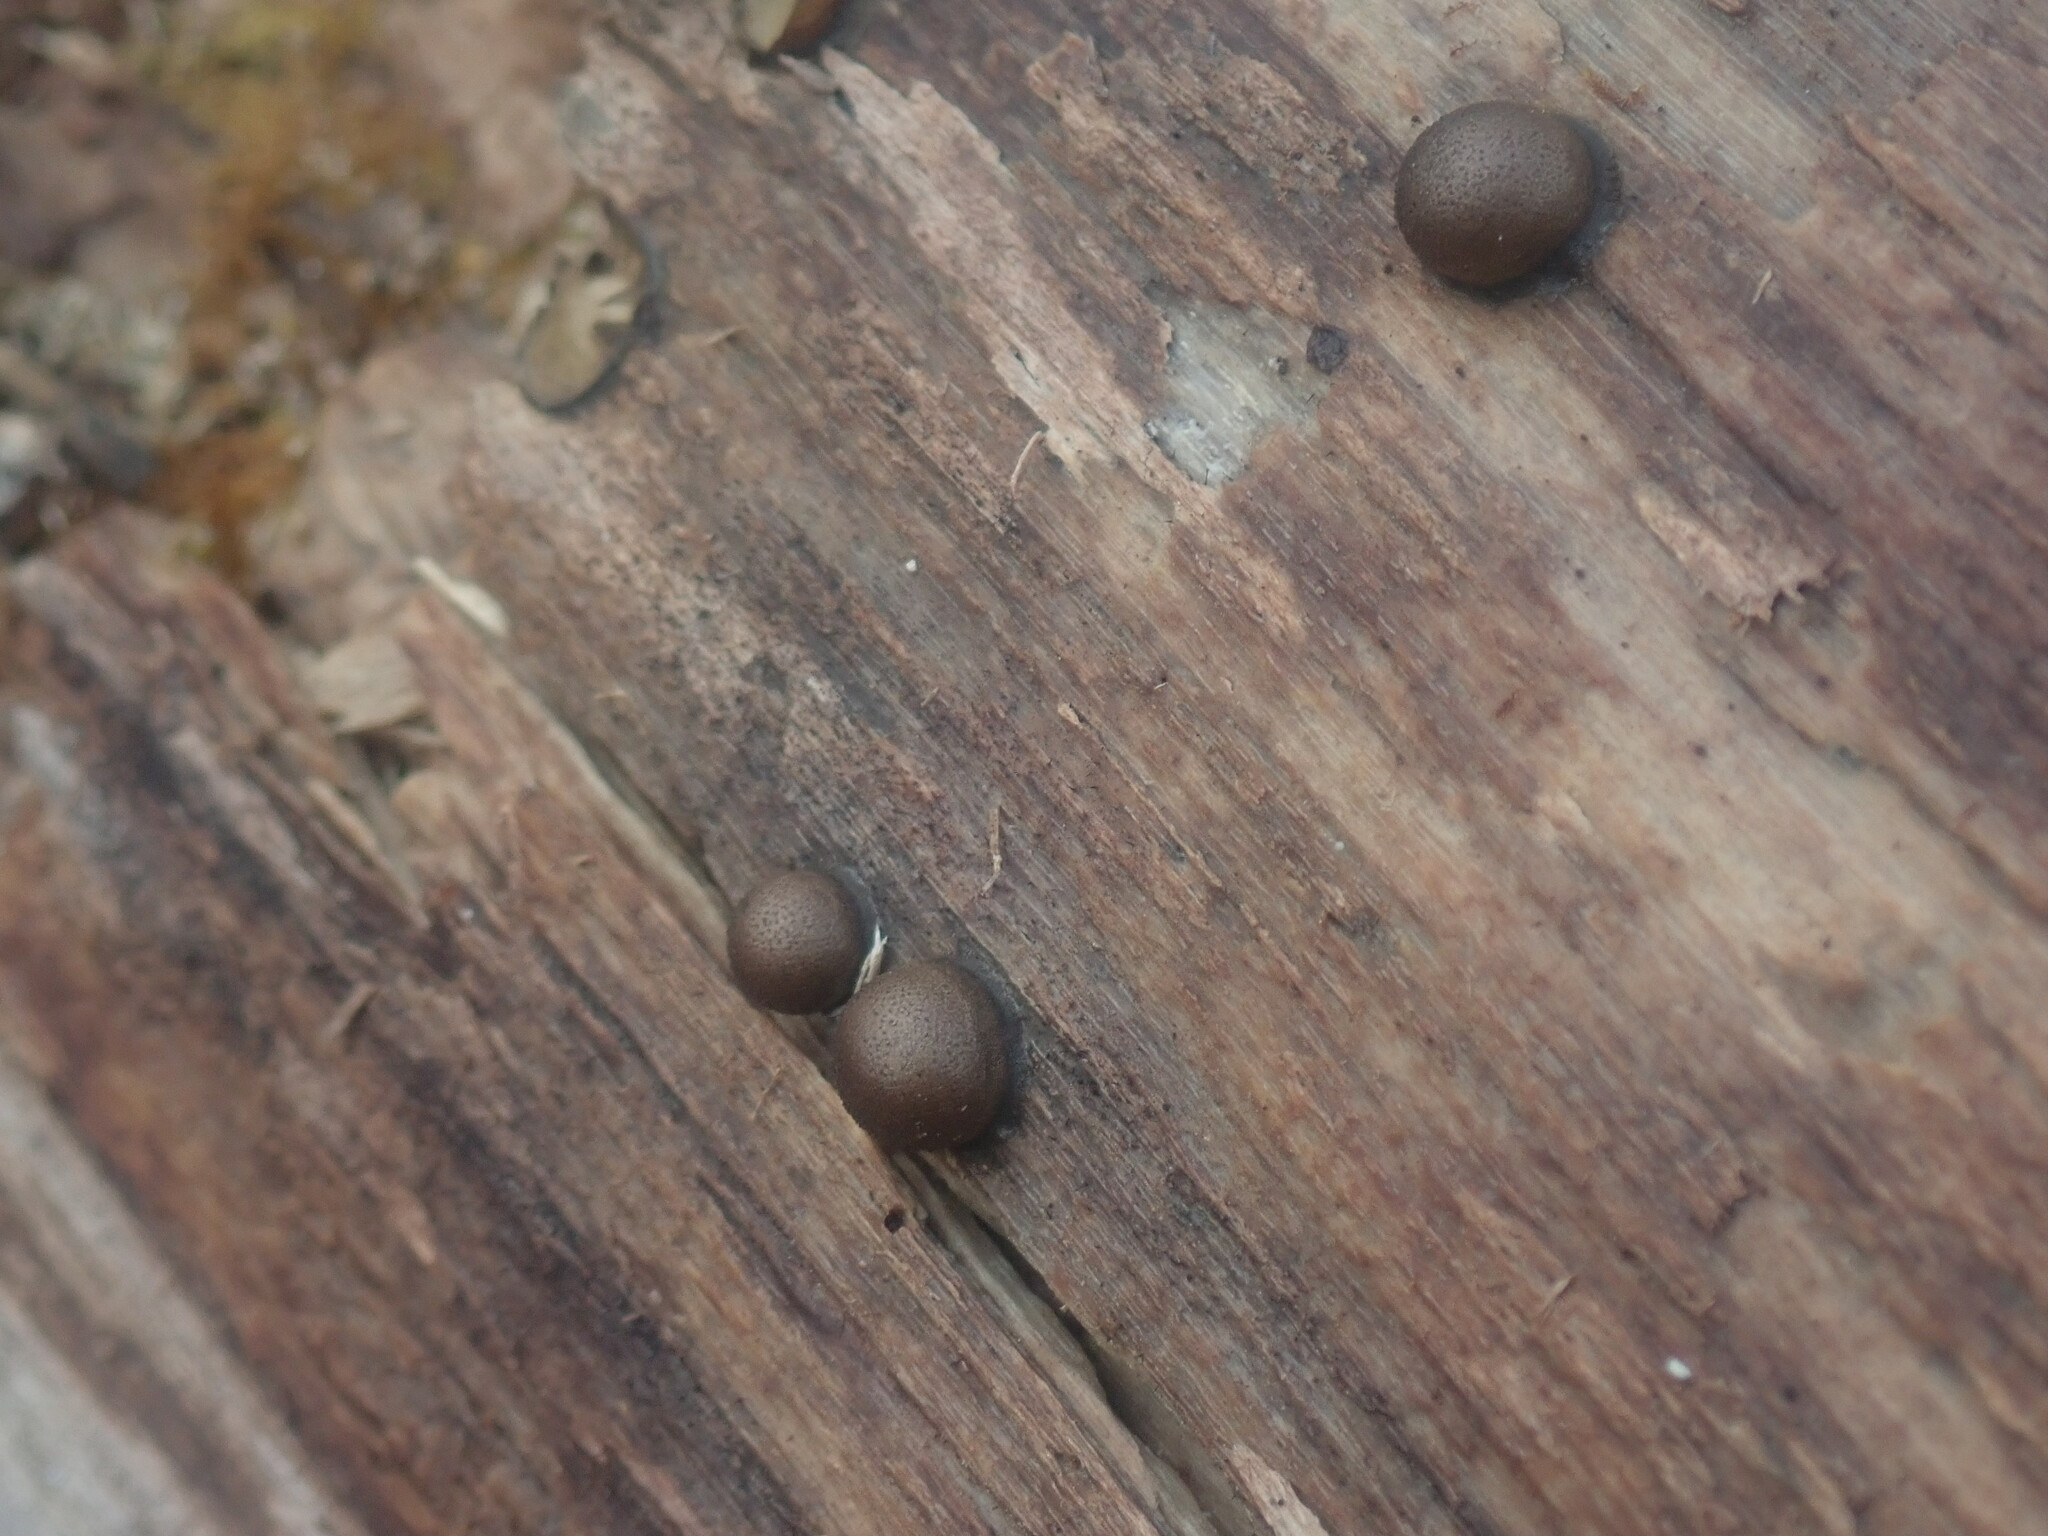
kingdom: Protozoa
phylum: Mycetozoa
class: Myxomycetes
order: Cribrariales
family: Tubiferaceae
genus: Lycogala
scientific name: Lycogala
